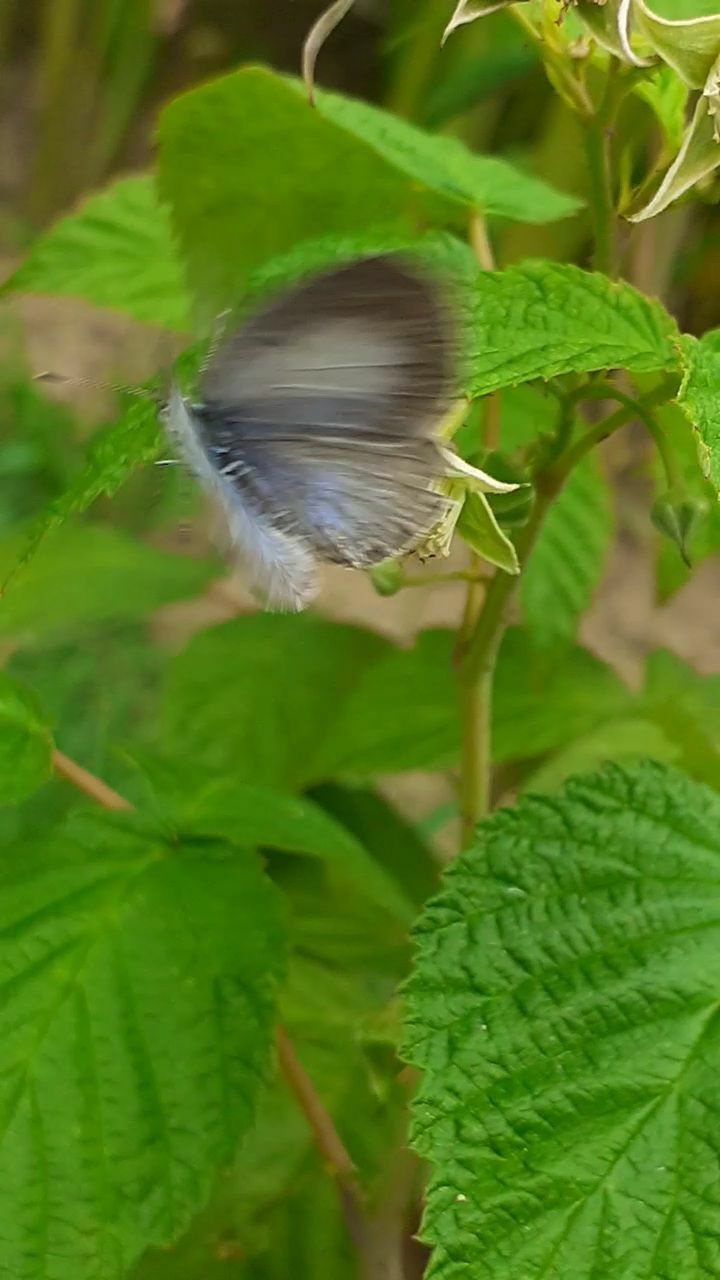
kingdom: Animalia
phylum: Arthropoda
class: Insecta
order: Lepidoptera
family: Lycaenidae
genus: Celastrina
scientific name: Celastrina argiolus
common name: Holly blue
